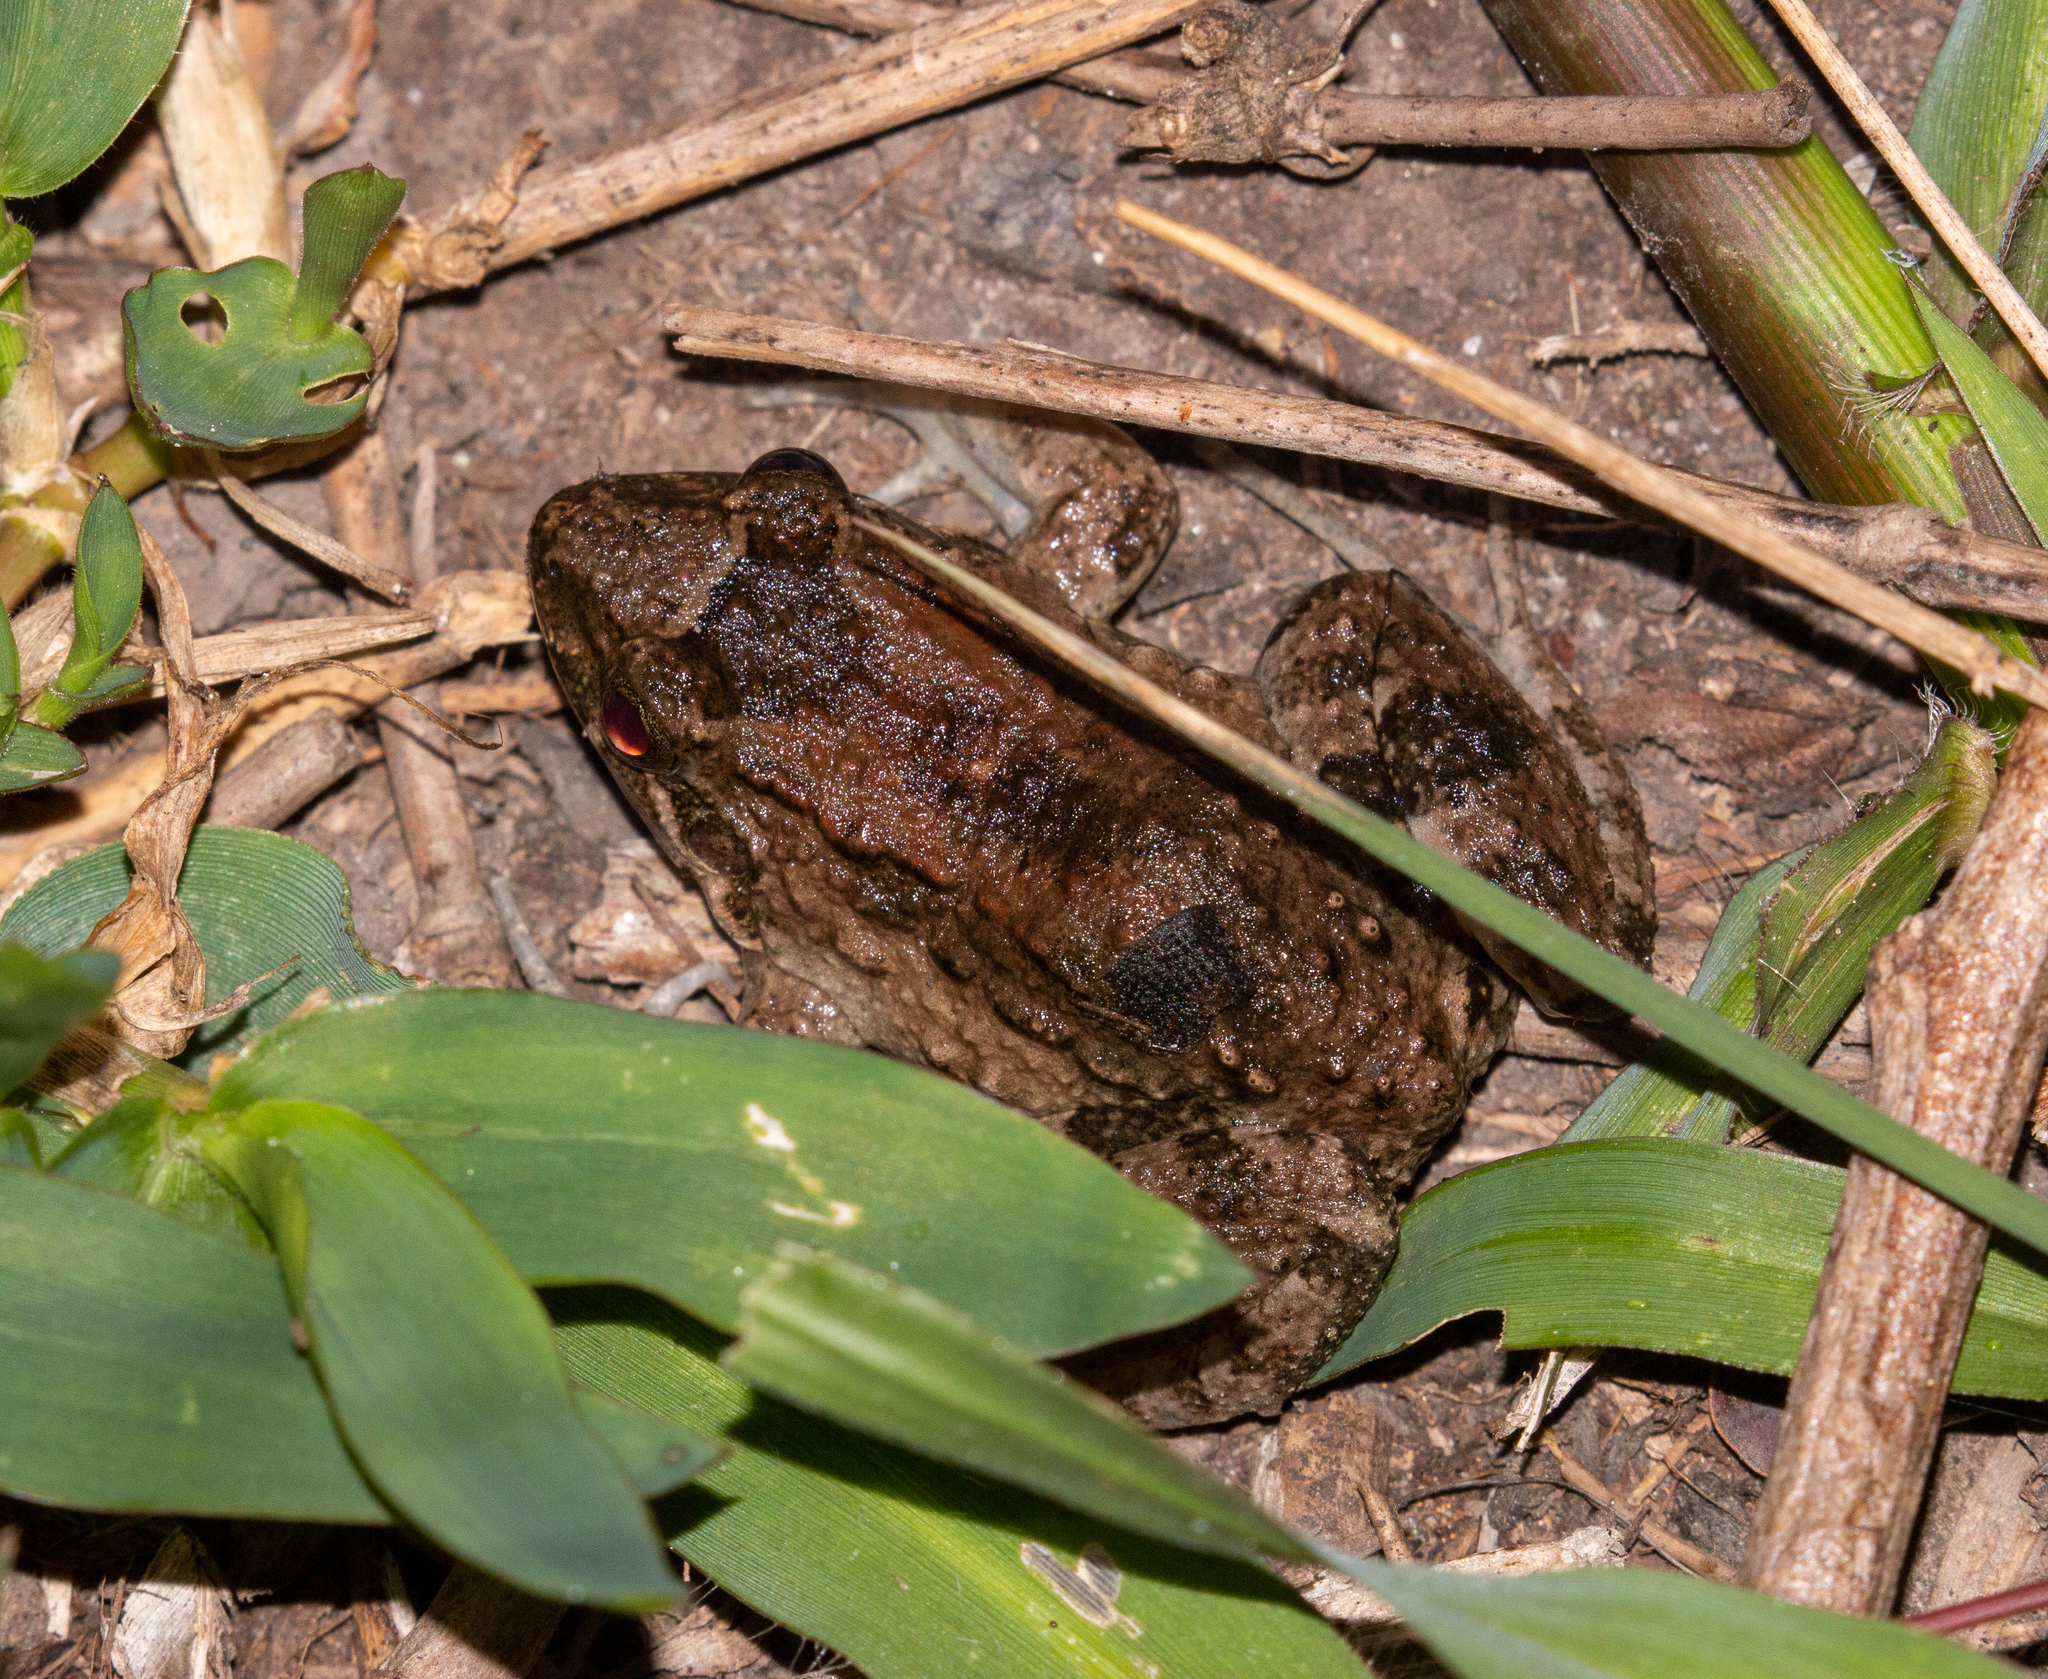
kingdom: Animalia
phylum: Chordata
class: Amphibia
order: Anura
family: Leptodactylidae
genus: Leptodactylus
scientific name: Leptodactylus natalensis
